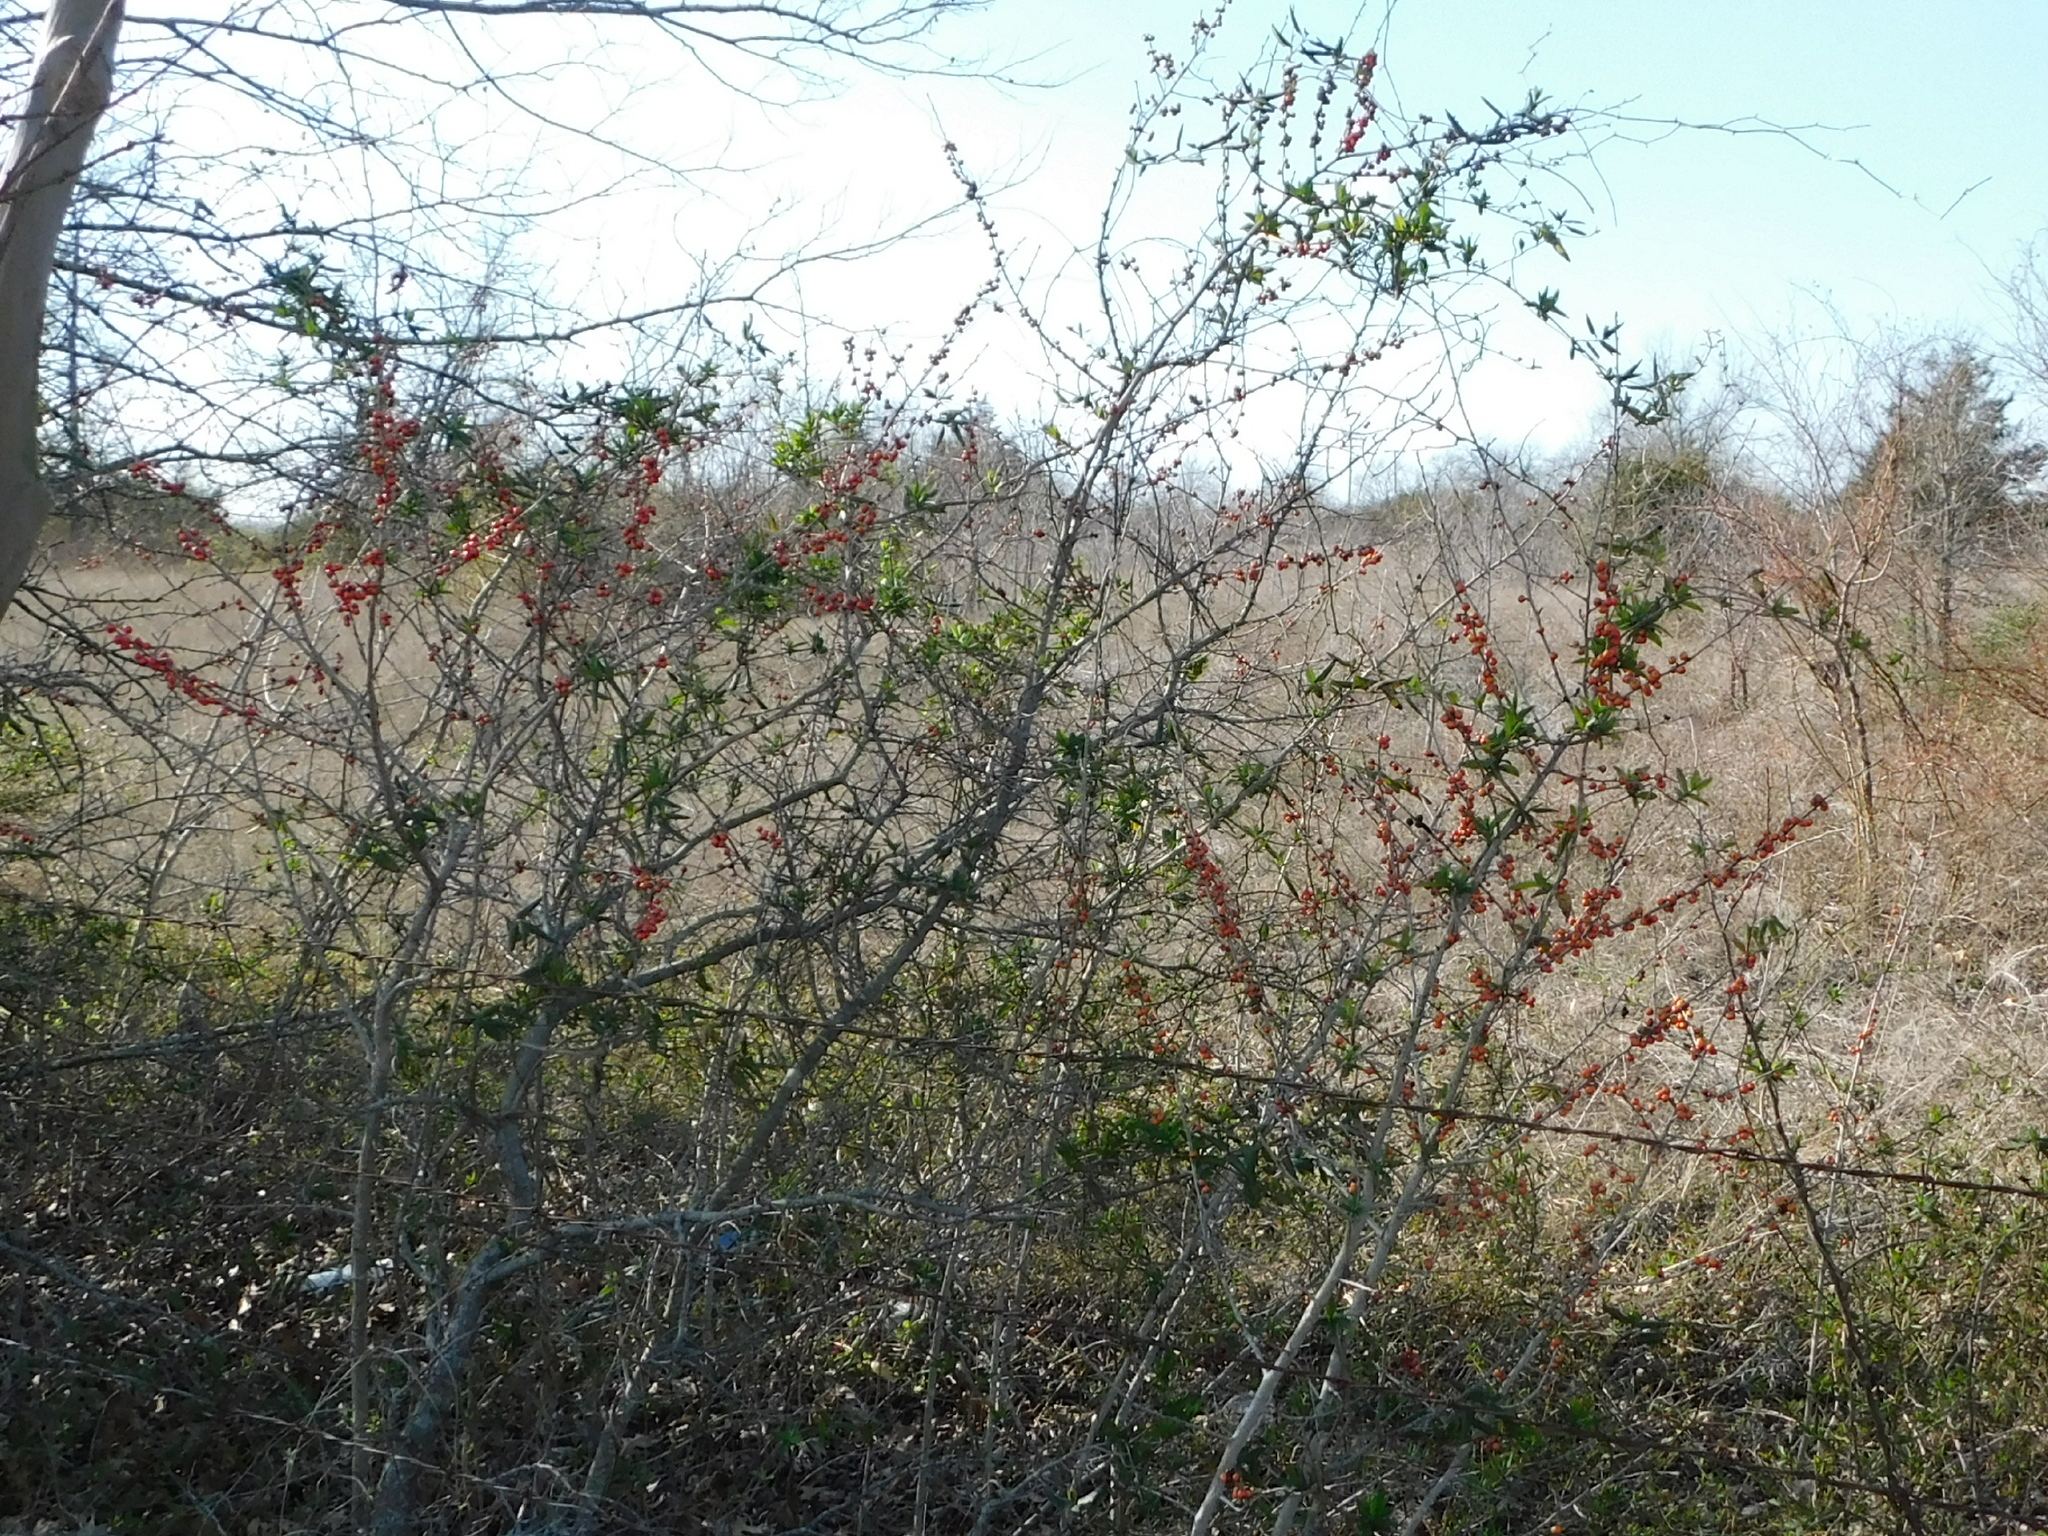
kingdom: Plantae
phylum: Tracheophyta
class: Magnoliopsida
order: Aquifoliales
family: Aquifoliaceae
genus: Ilex
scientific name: Ilex decidua
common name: Possum-haw
